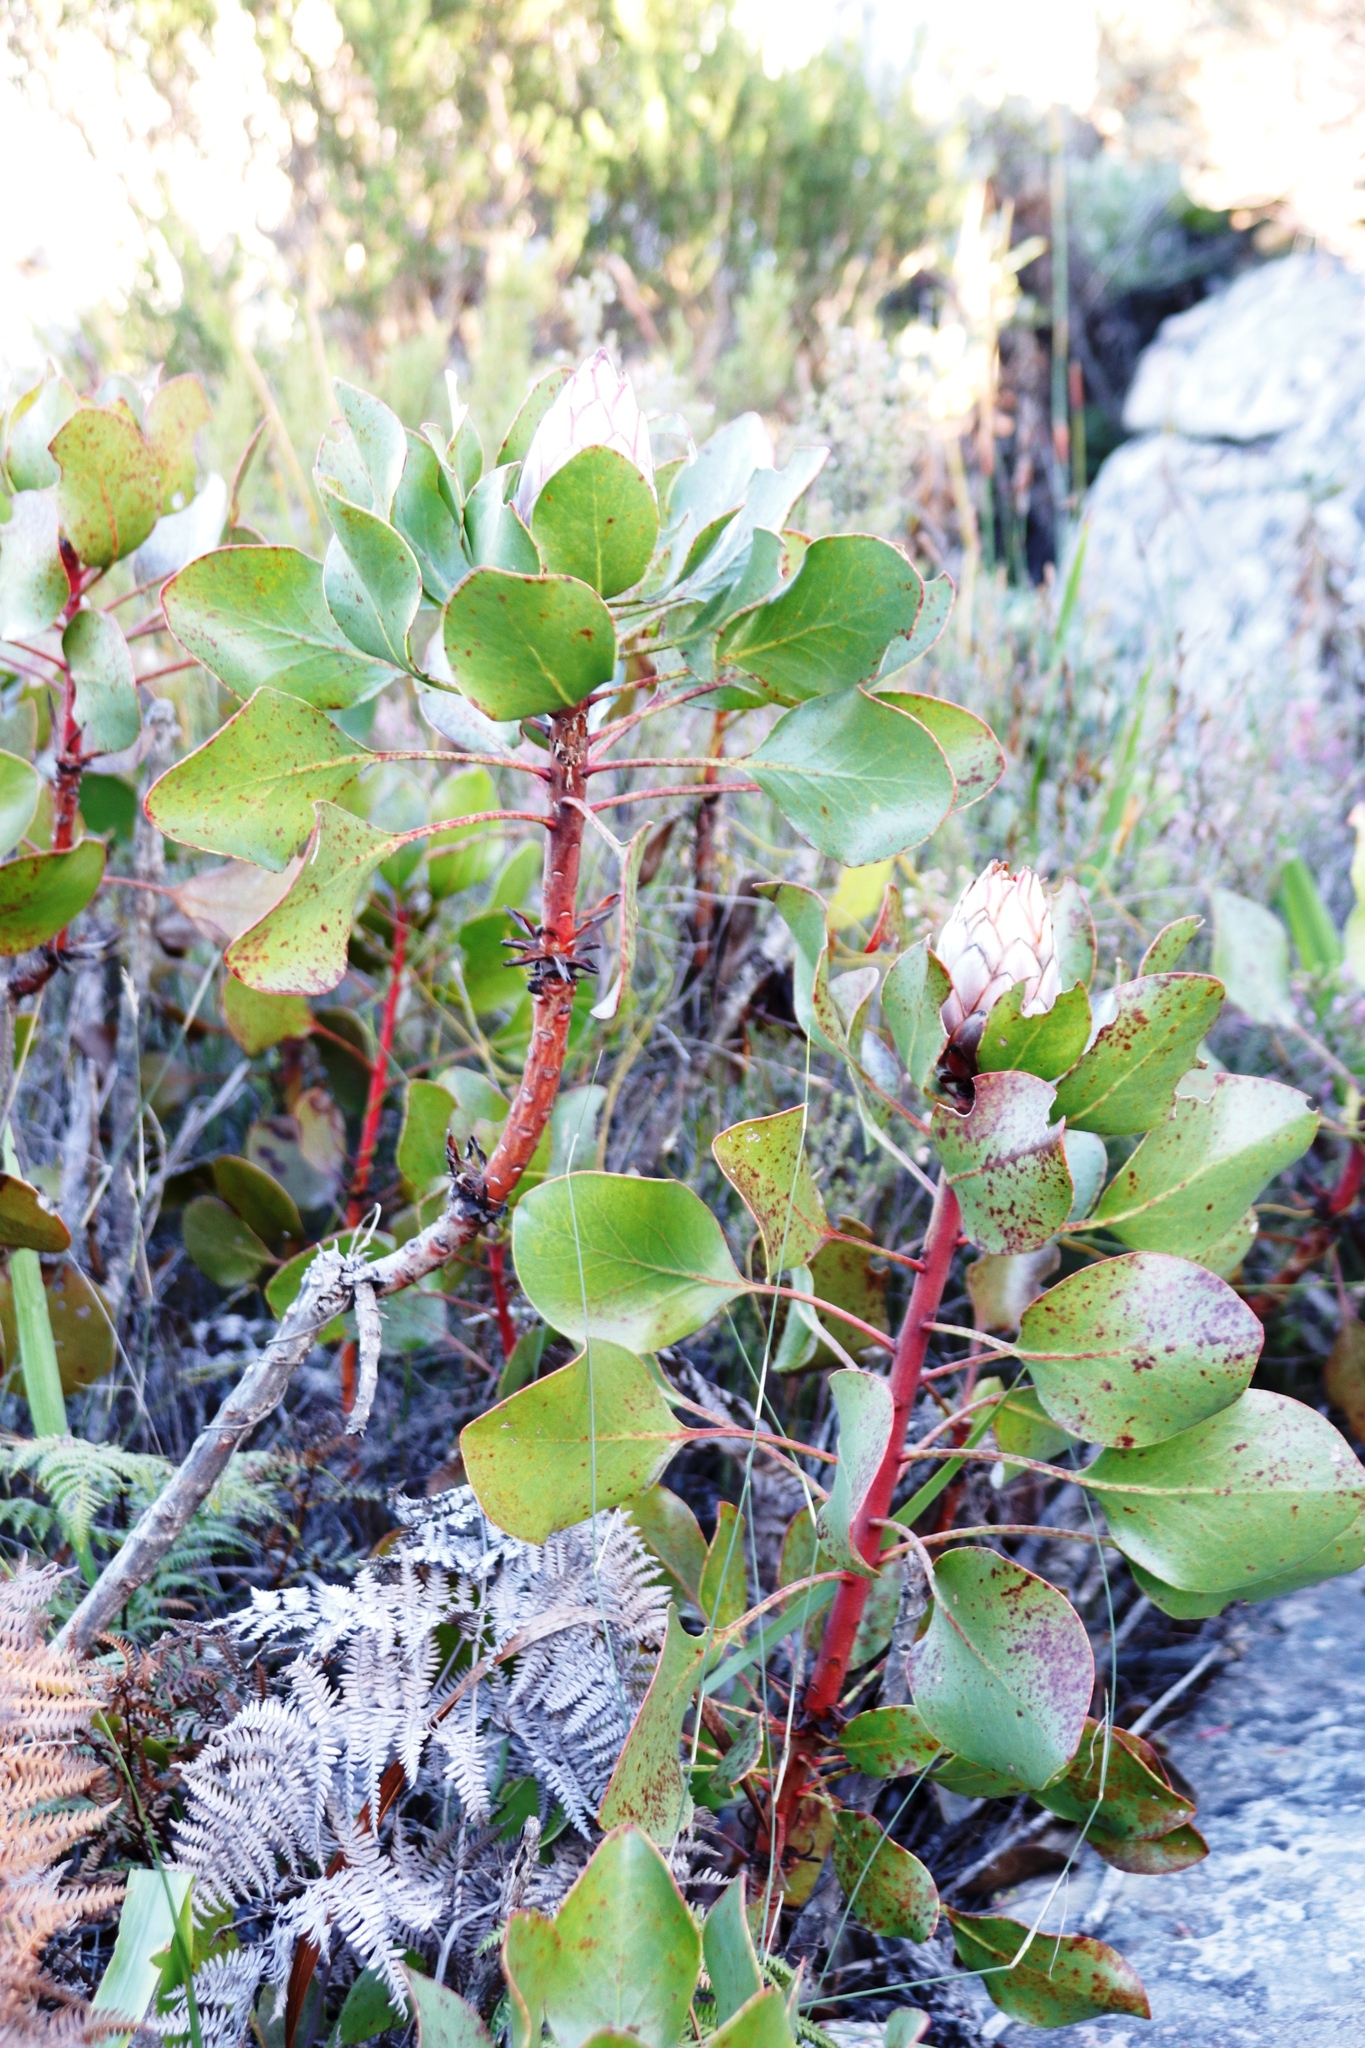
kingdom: Plantae
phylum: Tracheophyta
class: Magnoliopsida
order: Proteales
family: Proteaceae
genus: Protea
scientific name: Protea cynaroides
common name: King protea
